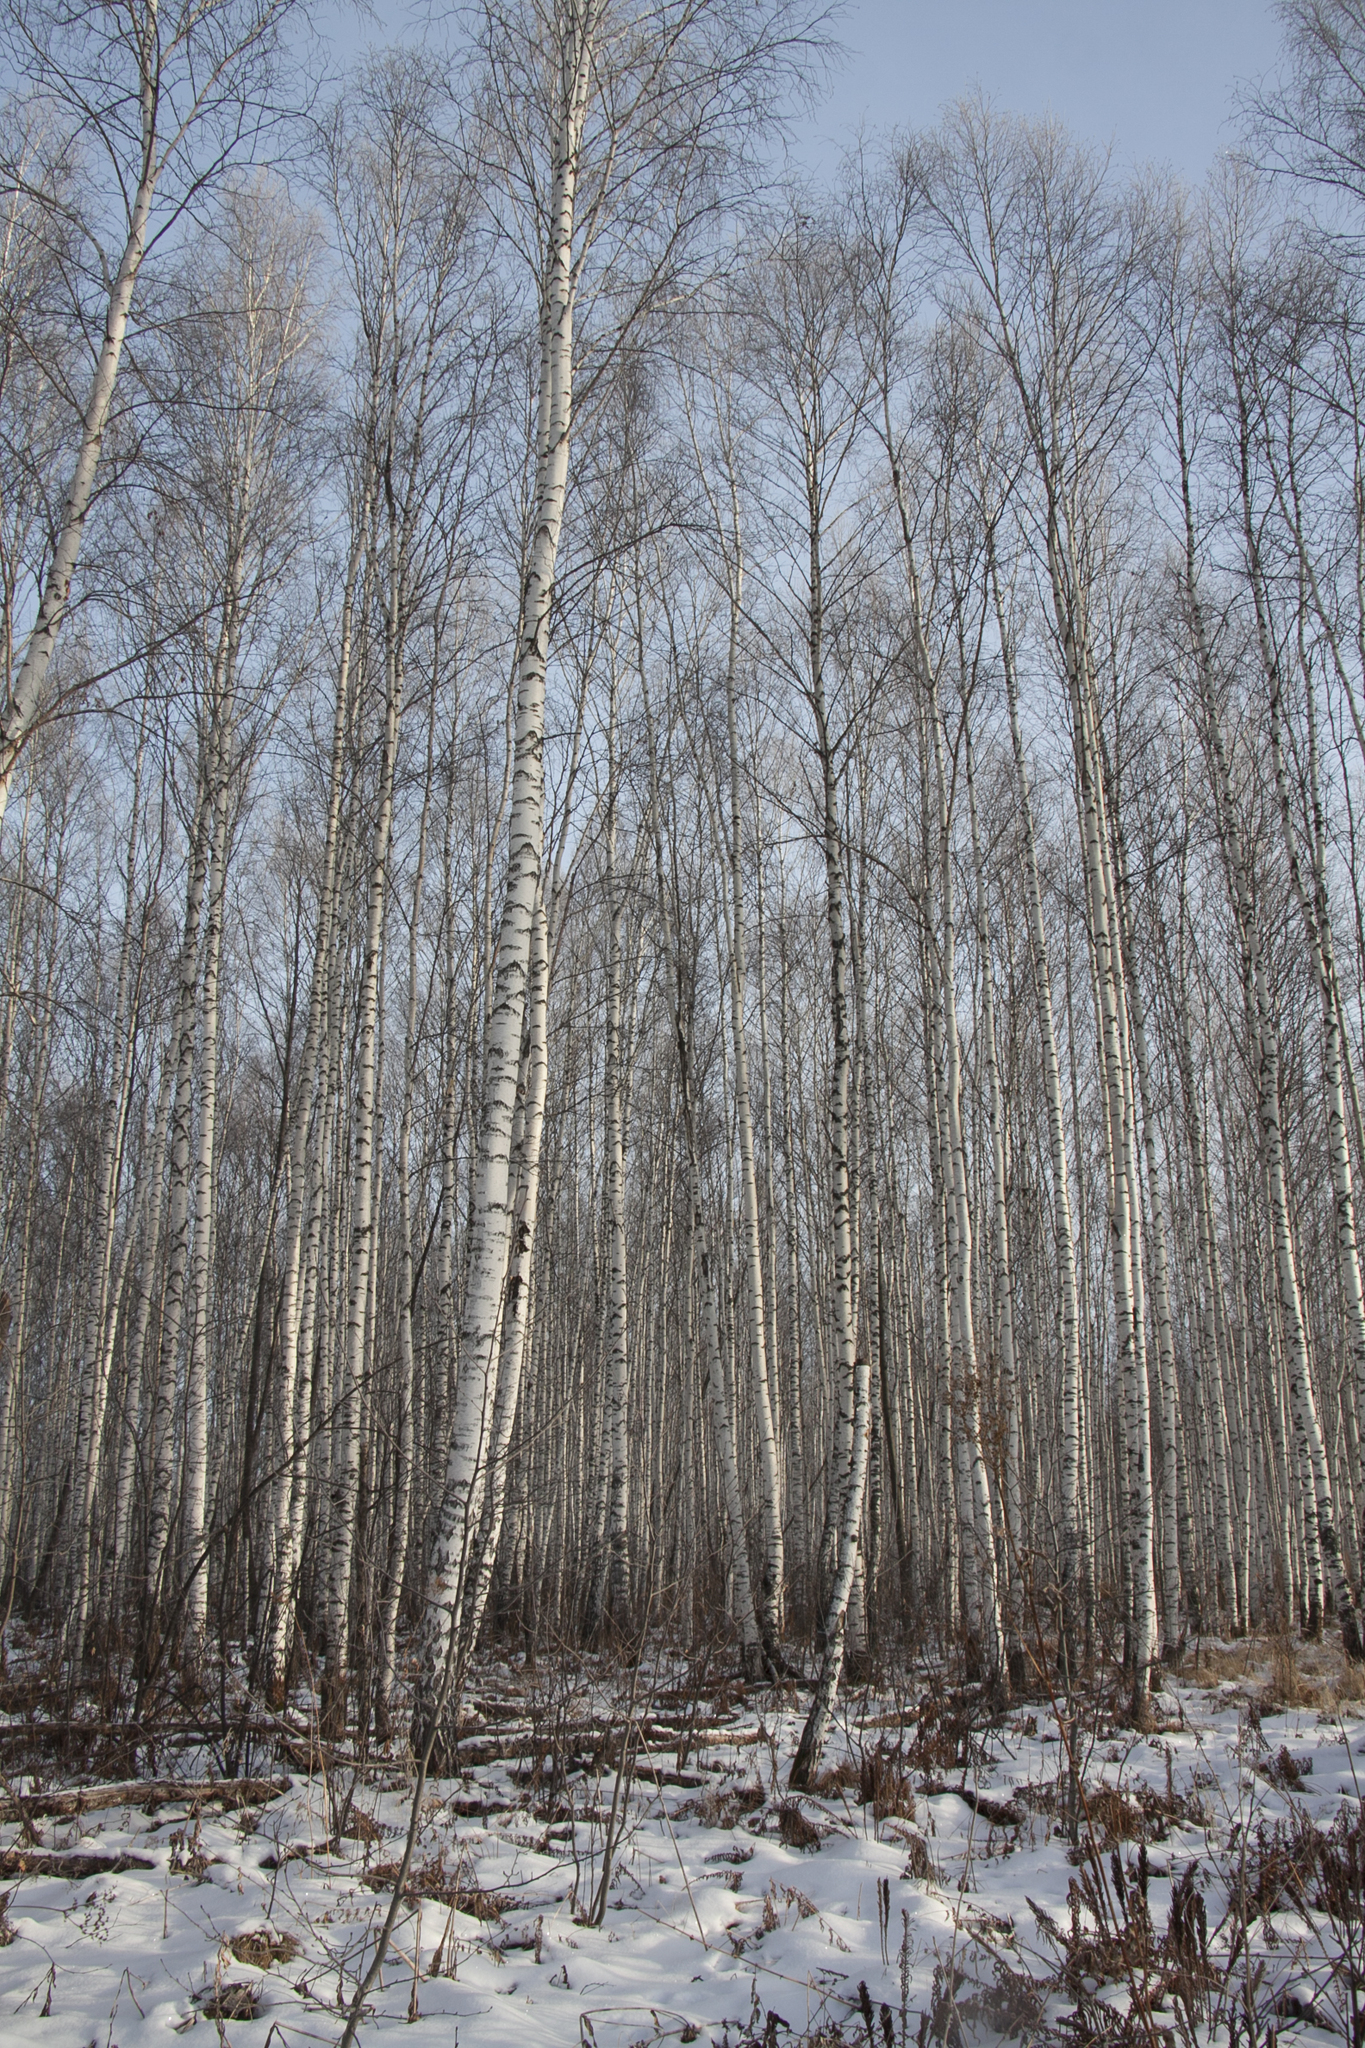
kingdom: Plantae
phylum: Tracheophyta
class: Magnoliopsida
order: Fagales
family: Betulaceae
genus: Betula
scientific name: Betula pendula
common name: Silver birch
